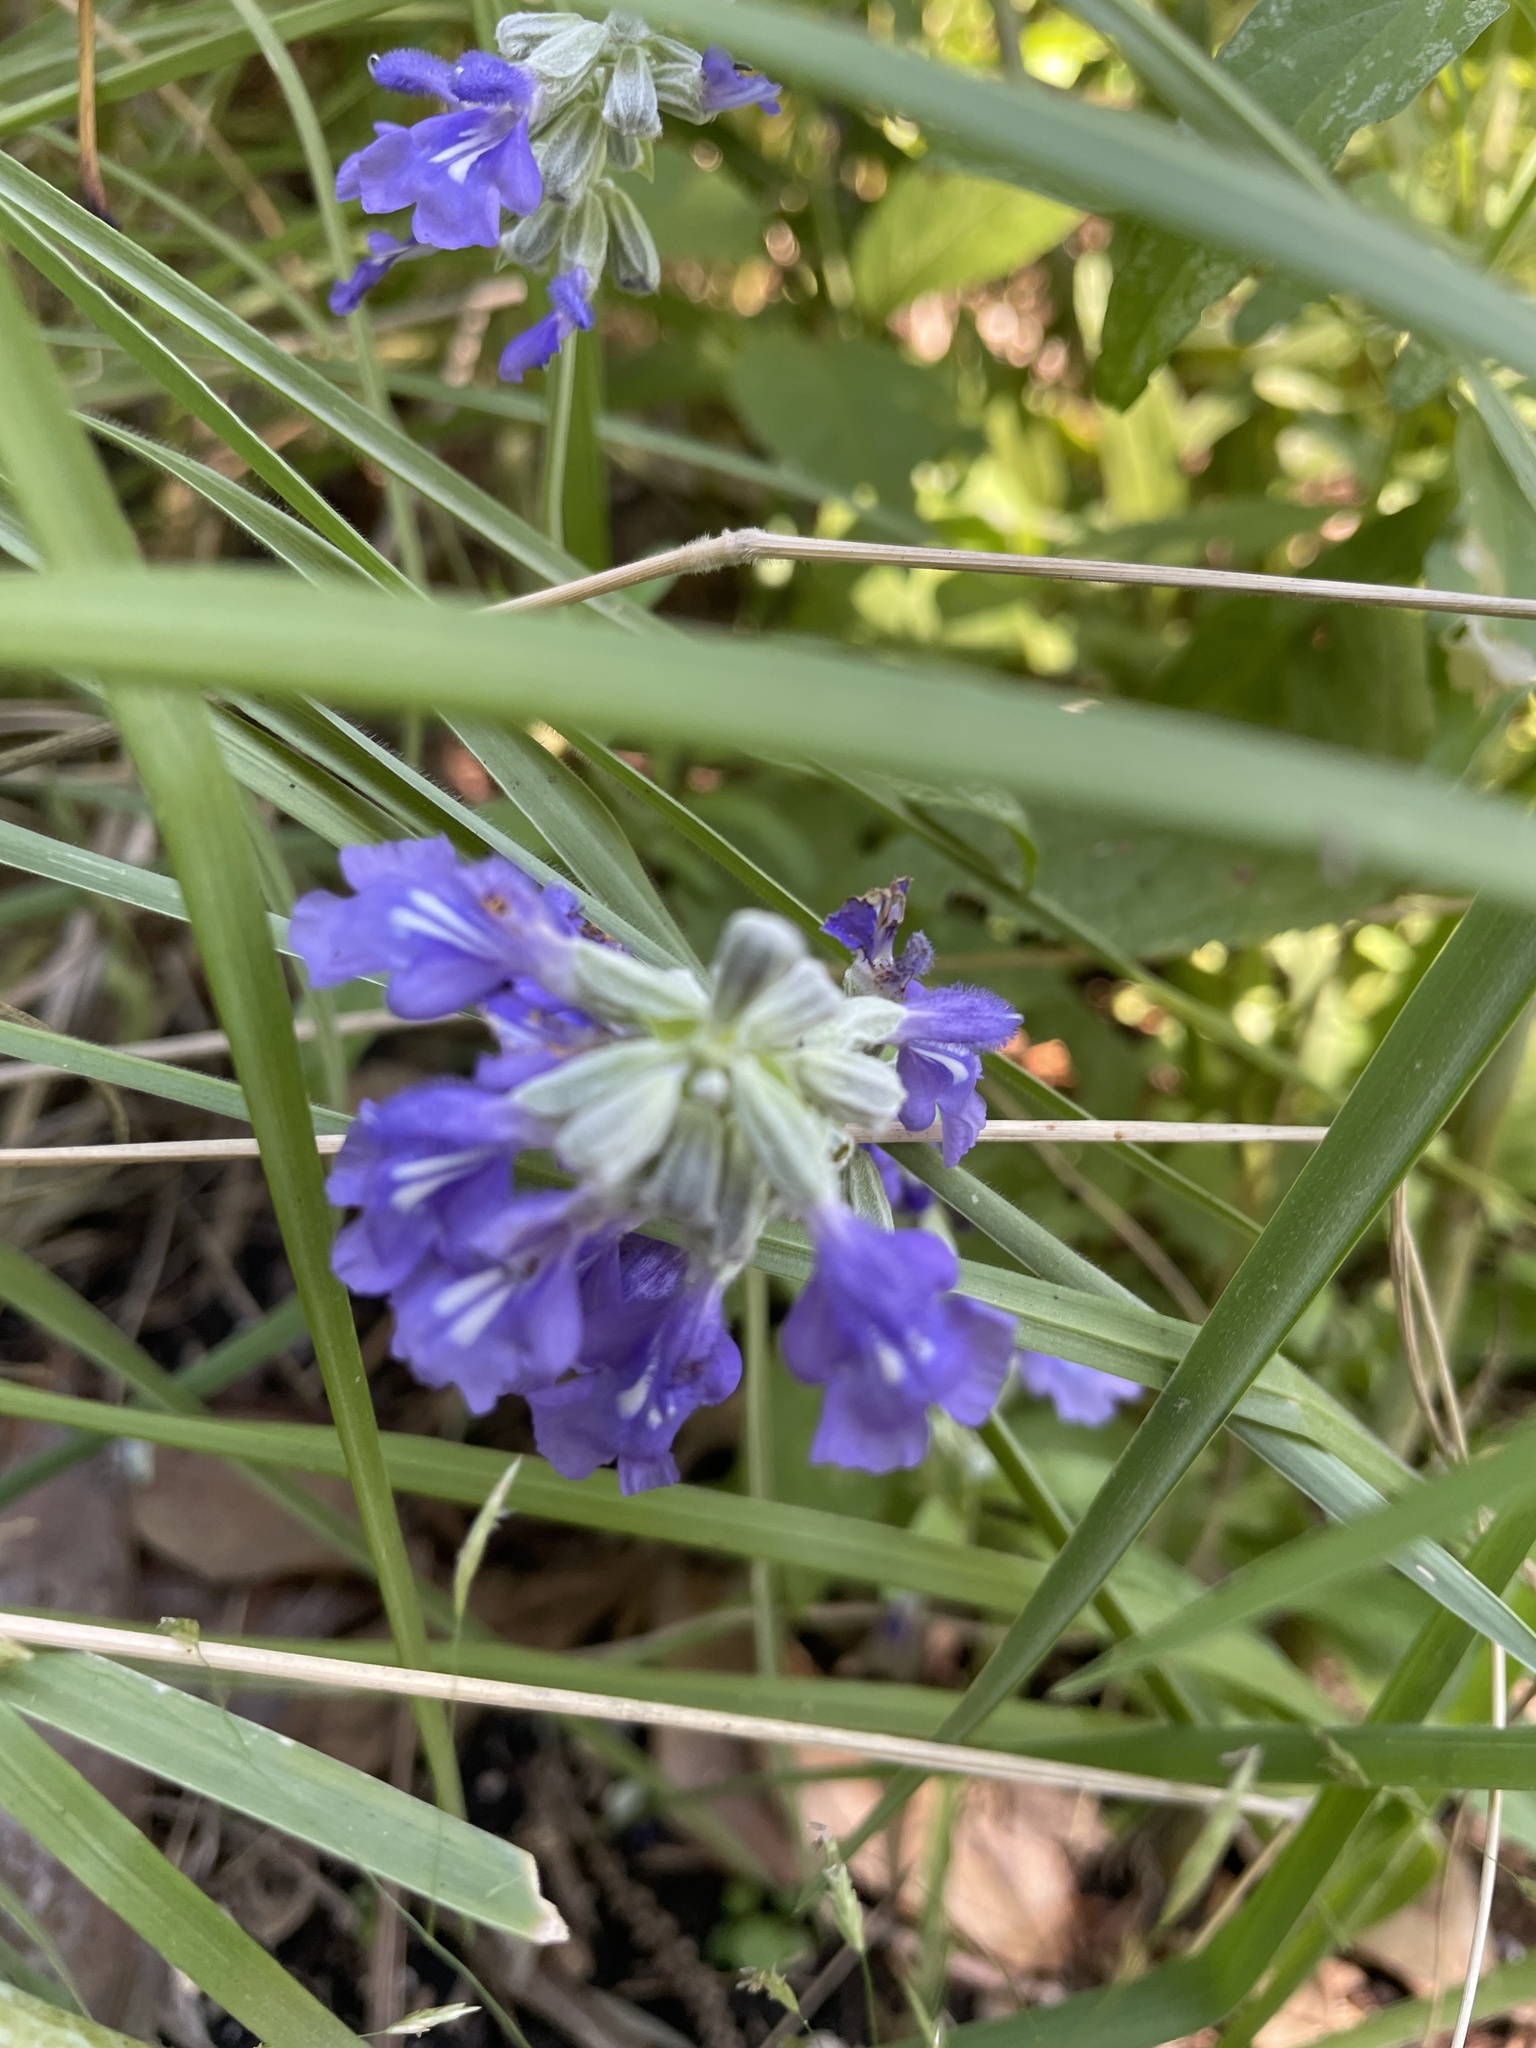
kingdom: Plantae
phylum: Tracheophyta
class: Magnoliopsida
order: Lamiales
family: Lamiaceae
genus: Salvia
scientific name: Salvia farinacea
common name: Mealy sage
